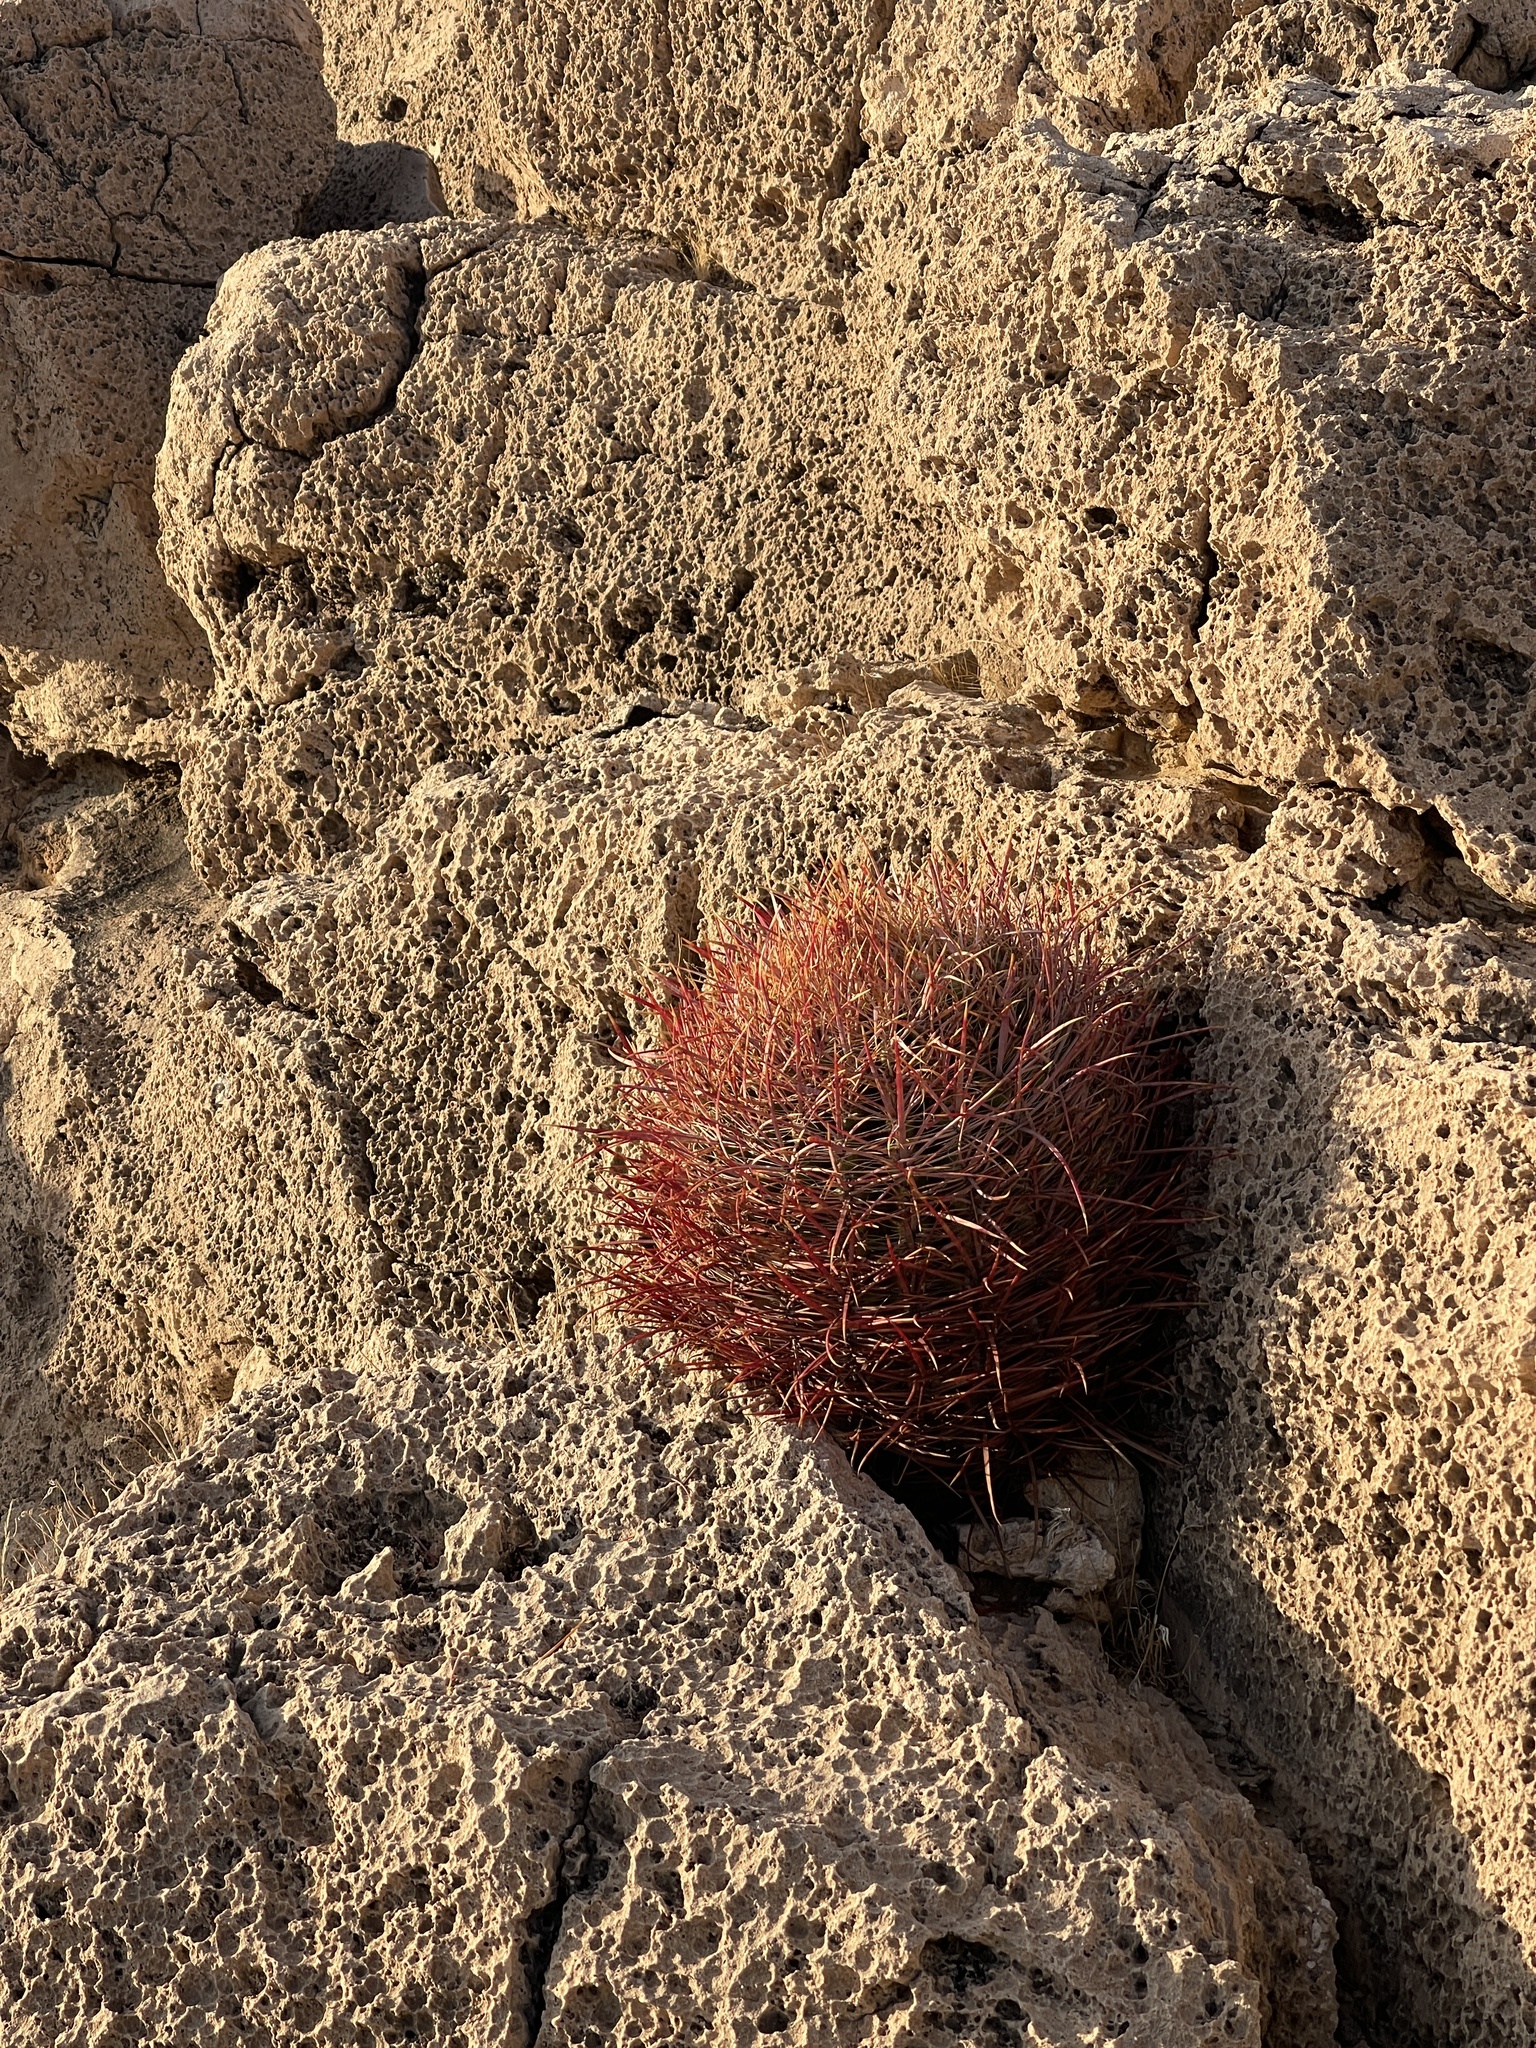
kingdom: Plantae
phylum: Tracheophyta
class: Magnoliopsida
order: Caryophyllales
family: Cactaceae
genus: Ferocactus
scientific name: Ferocactus cylindraceus
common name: California barrel cactus
